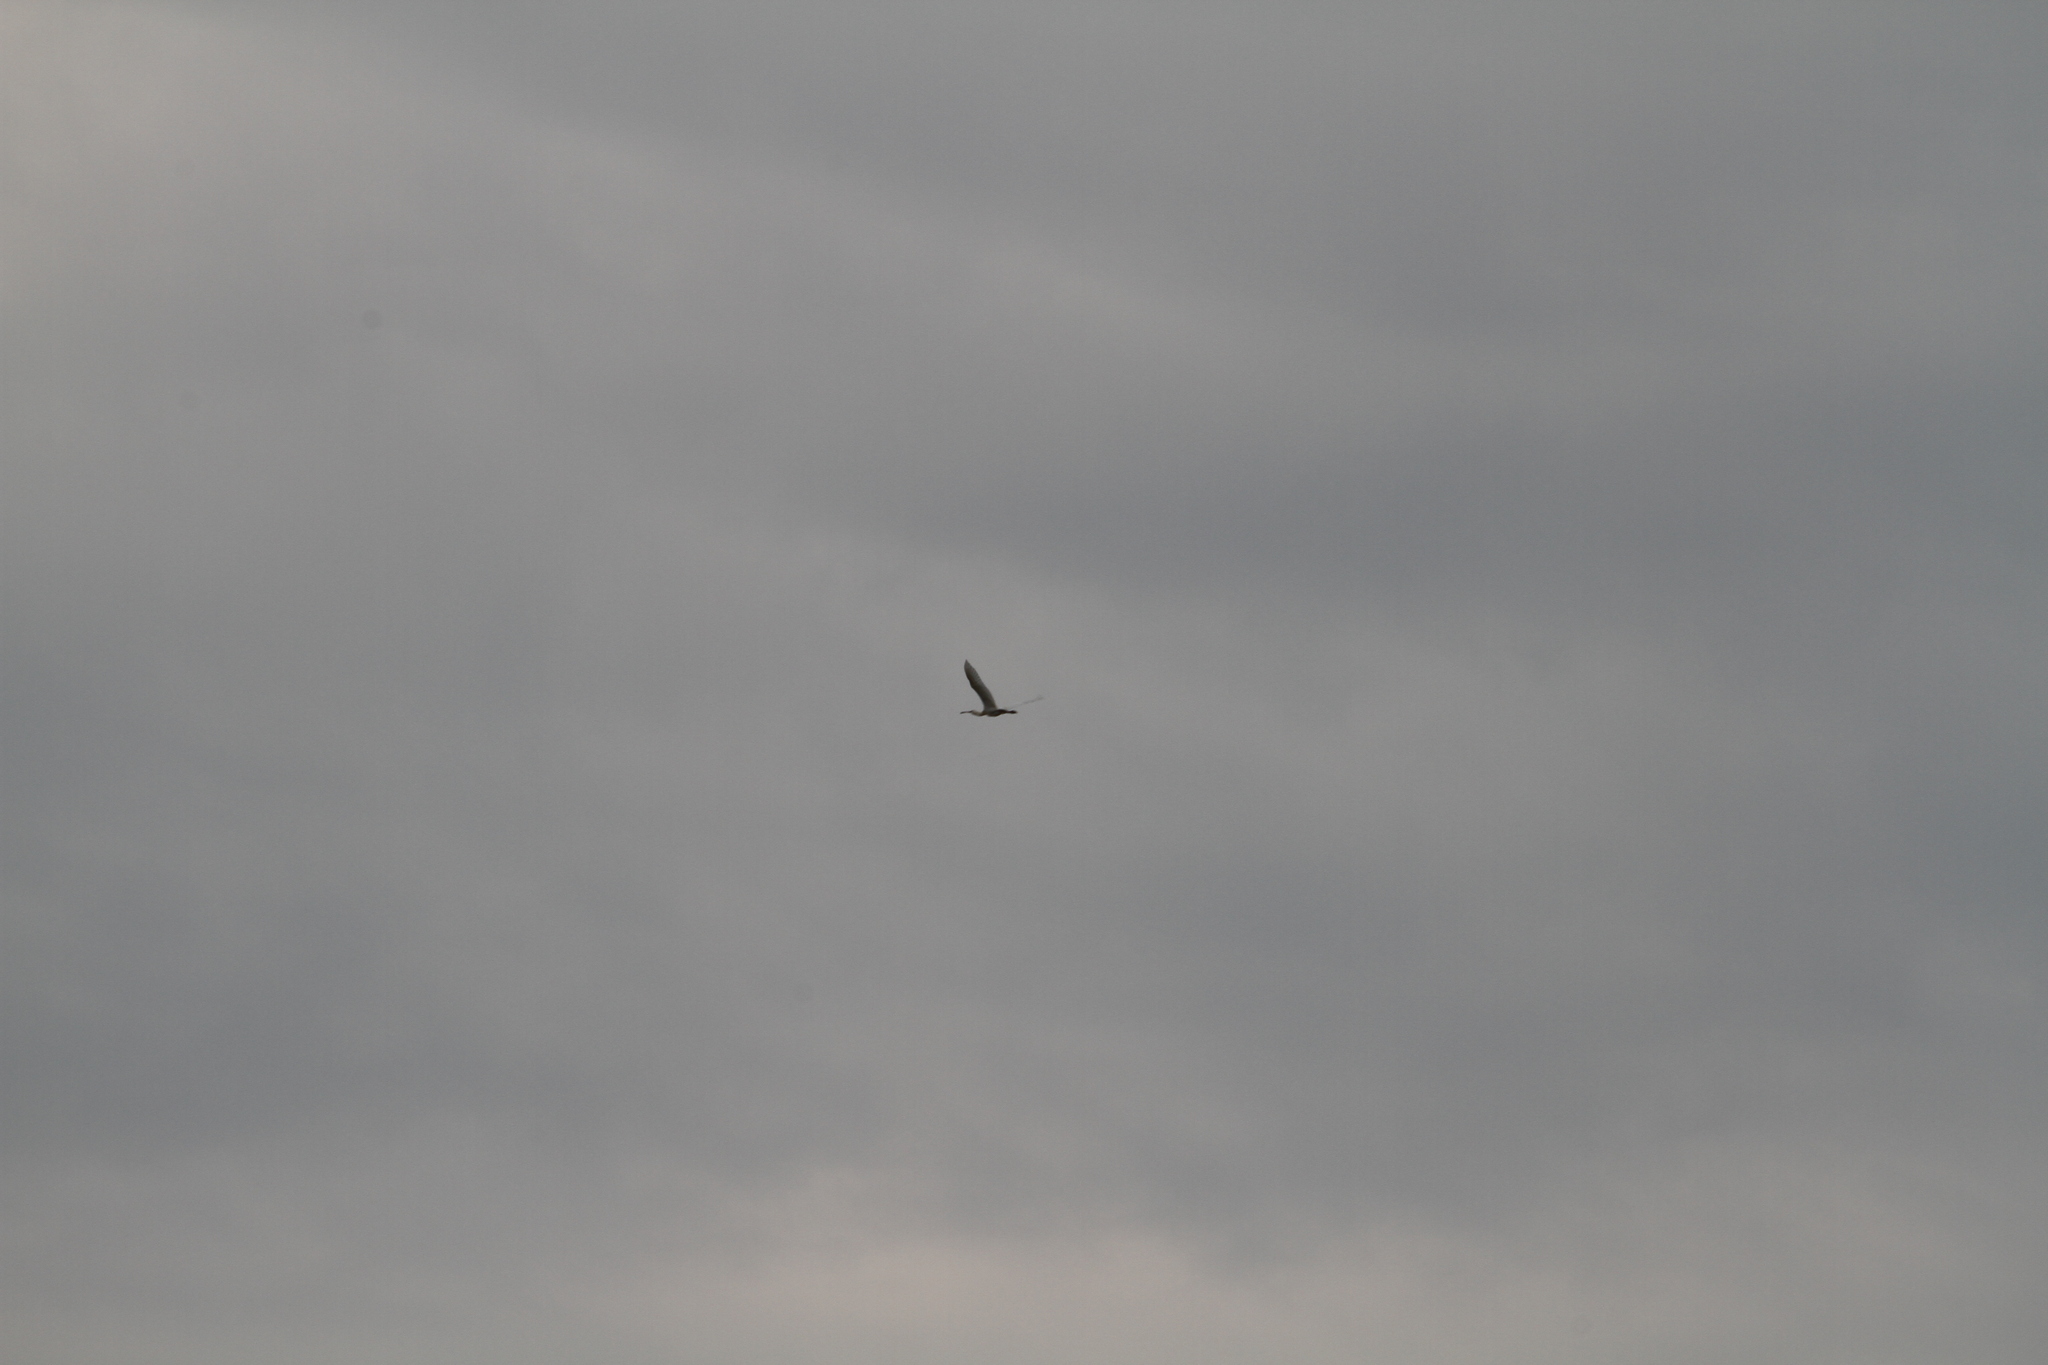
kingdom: Animalia
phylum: Chordata
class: Aves
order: Pelecaniformes
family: Threskiornithidae
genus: Platalea
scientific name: Platalea leucorodia
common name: Eurasian spoonbill
